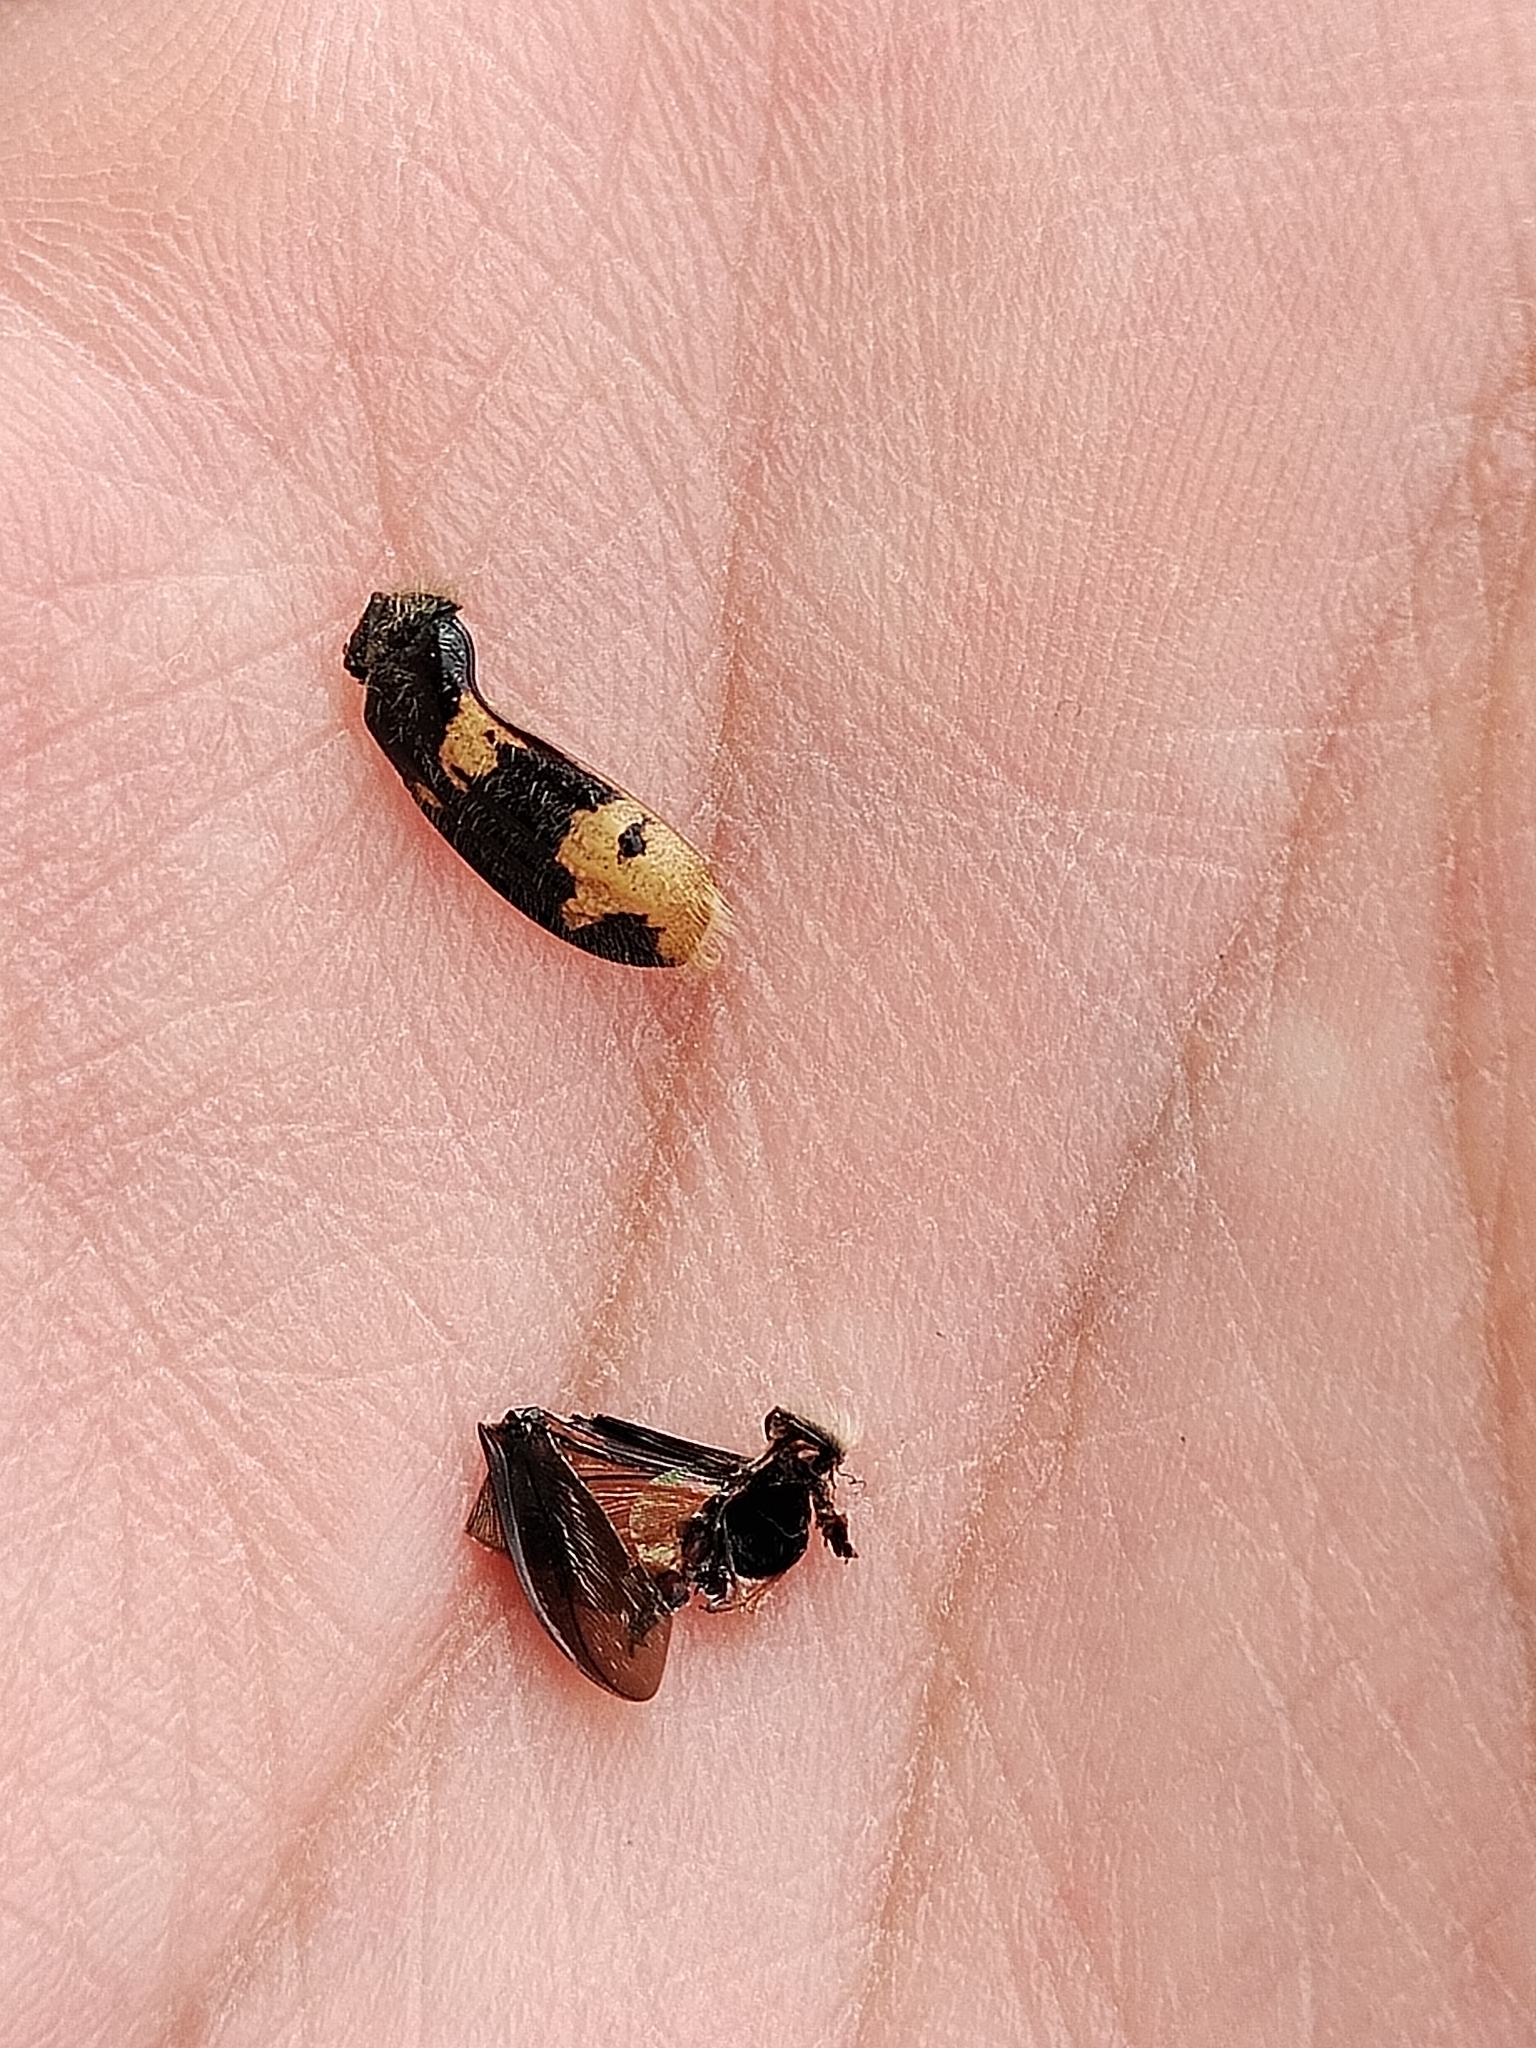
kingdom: Animalia
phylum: Arthropoda
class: Insecta
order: Coleoptera
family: Scarabaeidae
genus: Euphoria
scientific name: Euphoria basalis
